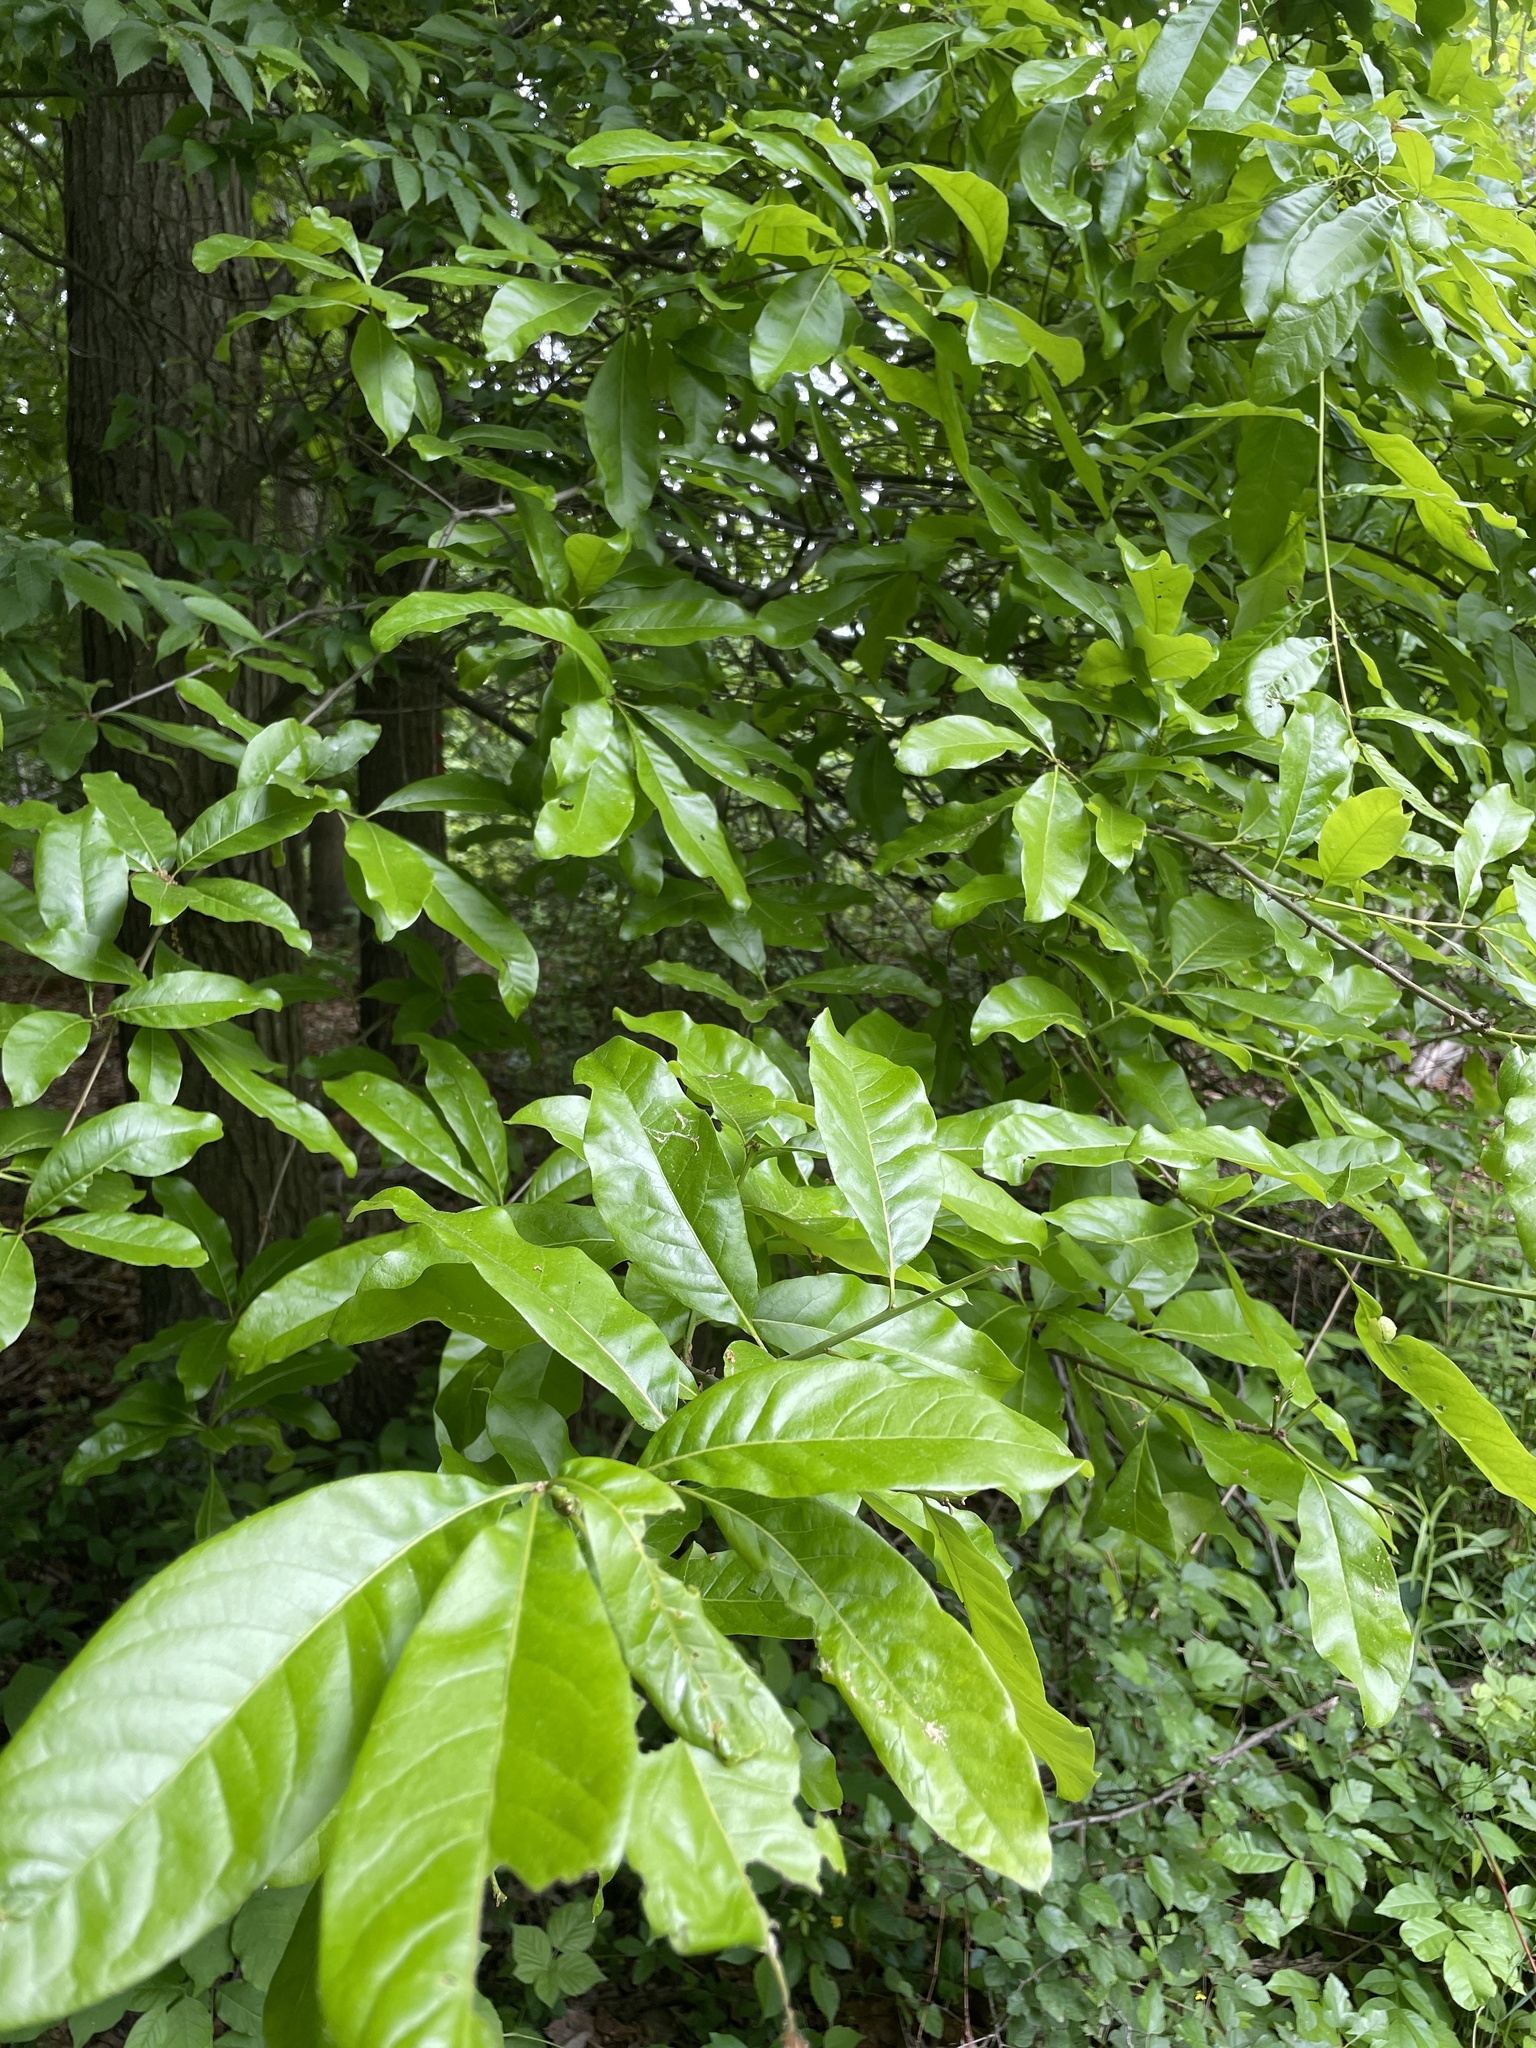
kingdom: Plantae
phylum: Tracheophyta
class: Magnoliopsida
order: Fagales
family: Fagaceae
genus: Quercus
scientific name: Quercus imbricaria
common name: Shingle oak
